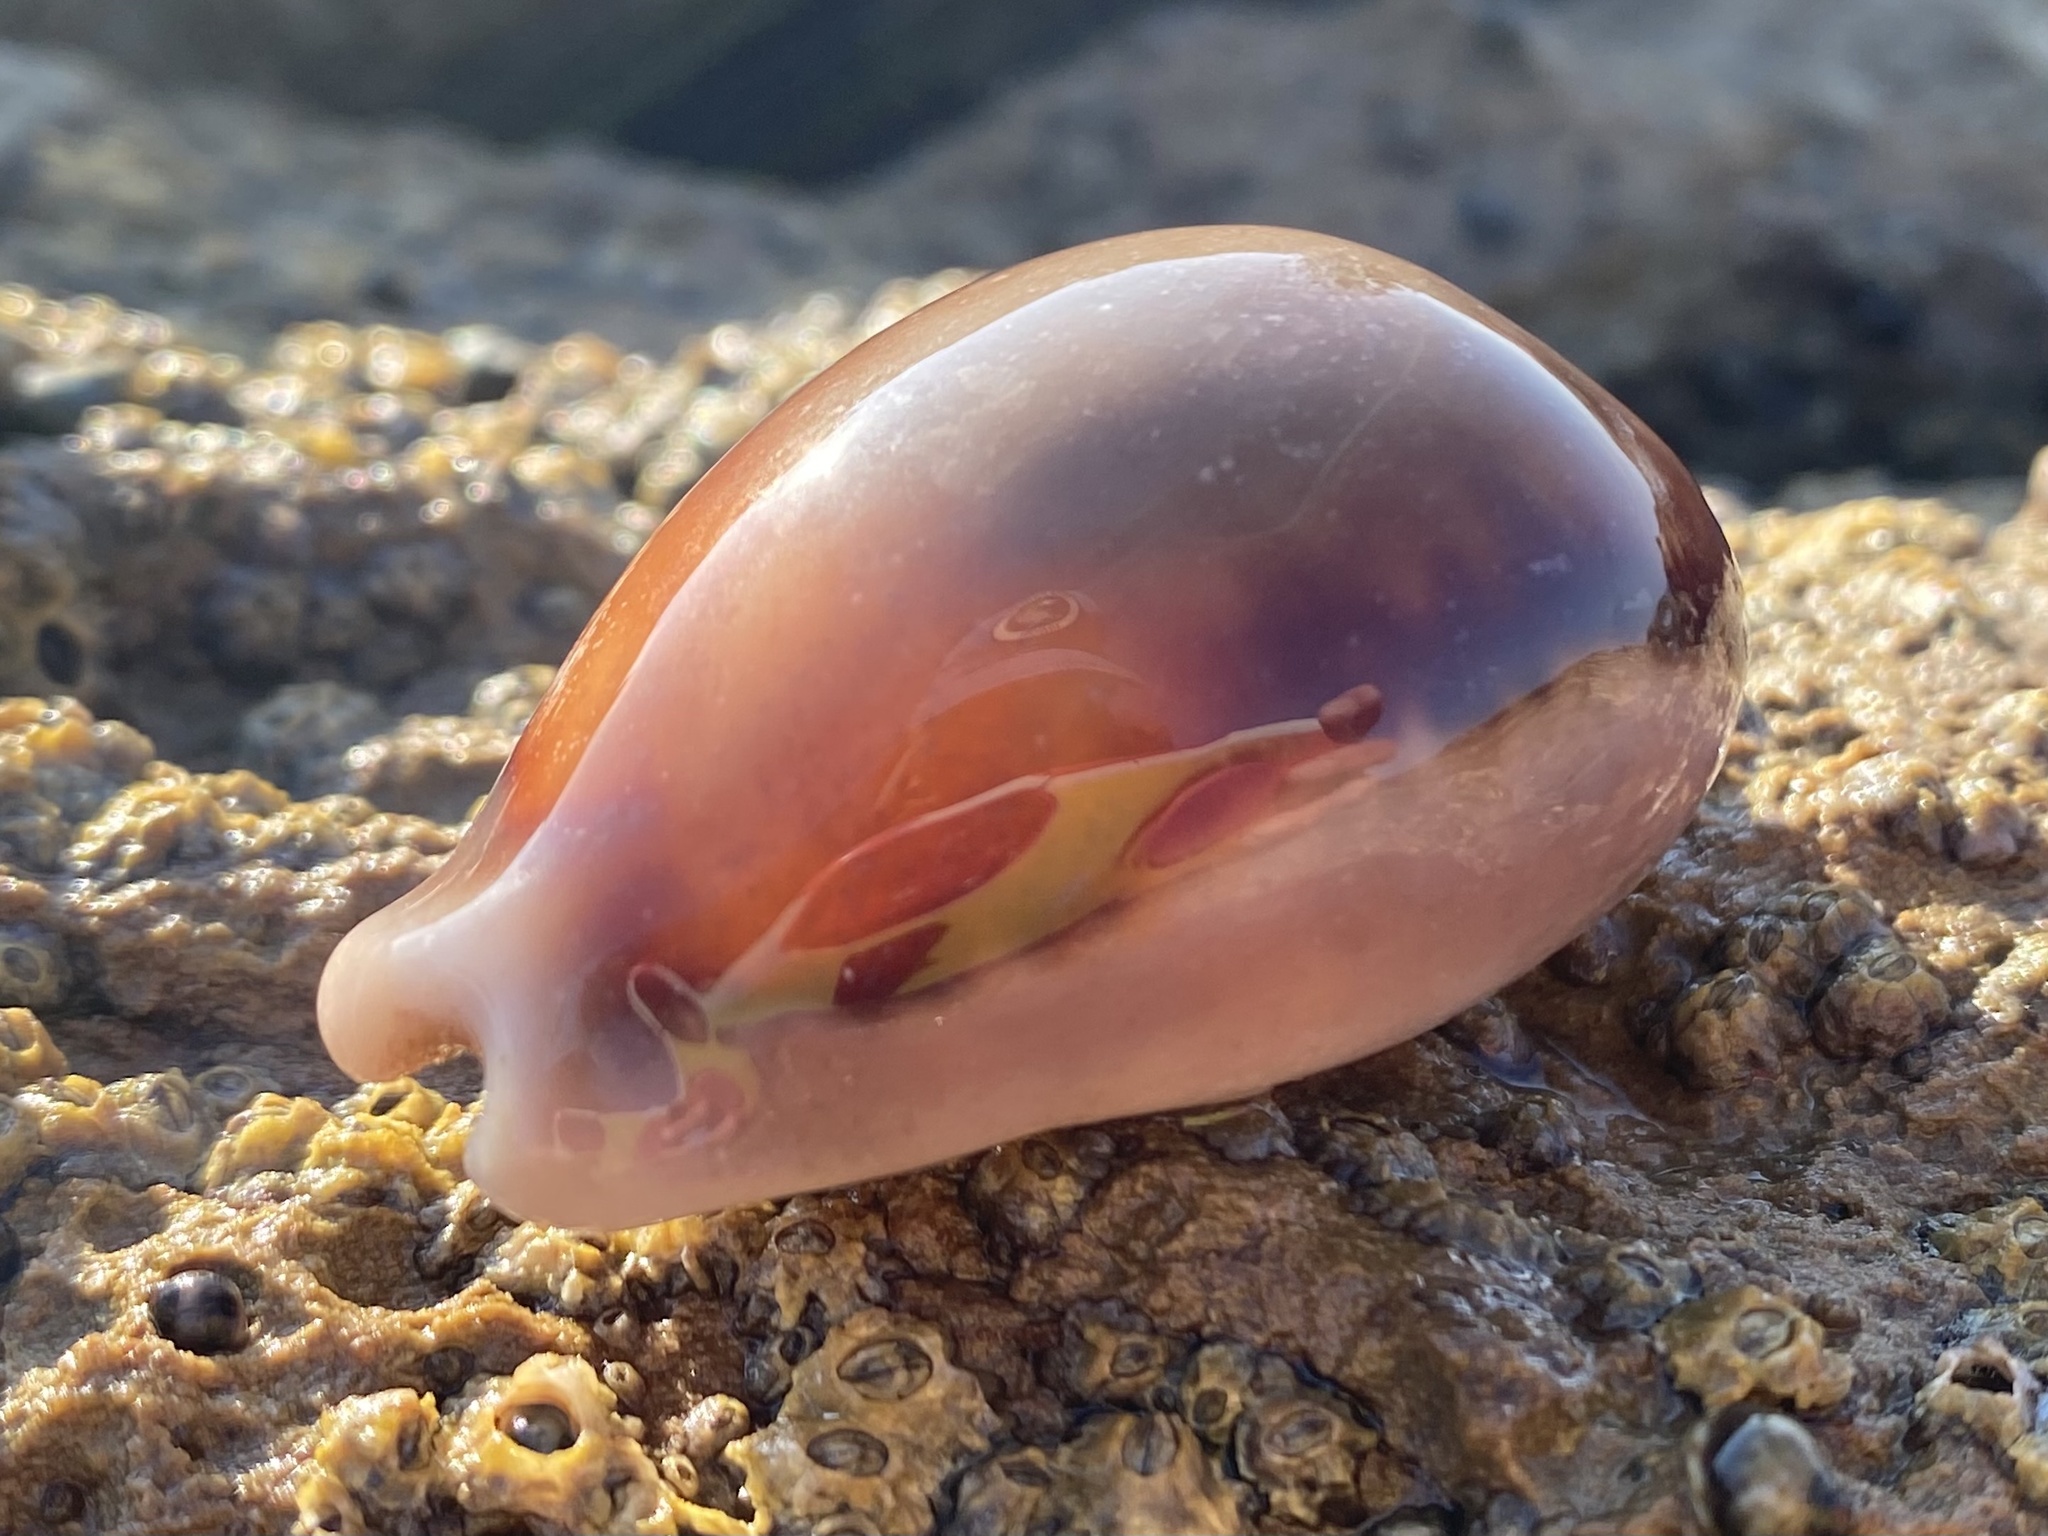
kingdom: Animalia
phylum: Mollusca
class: Gastropoda
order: Littorinimorpha
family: Cypraeidae
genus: Neobernaya
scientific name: Neobernaya spadicea
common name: Chestnut cowrie
